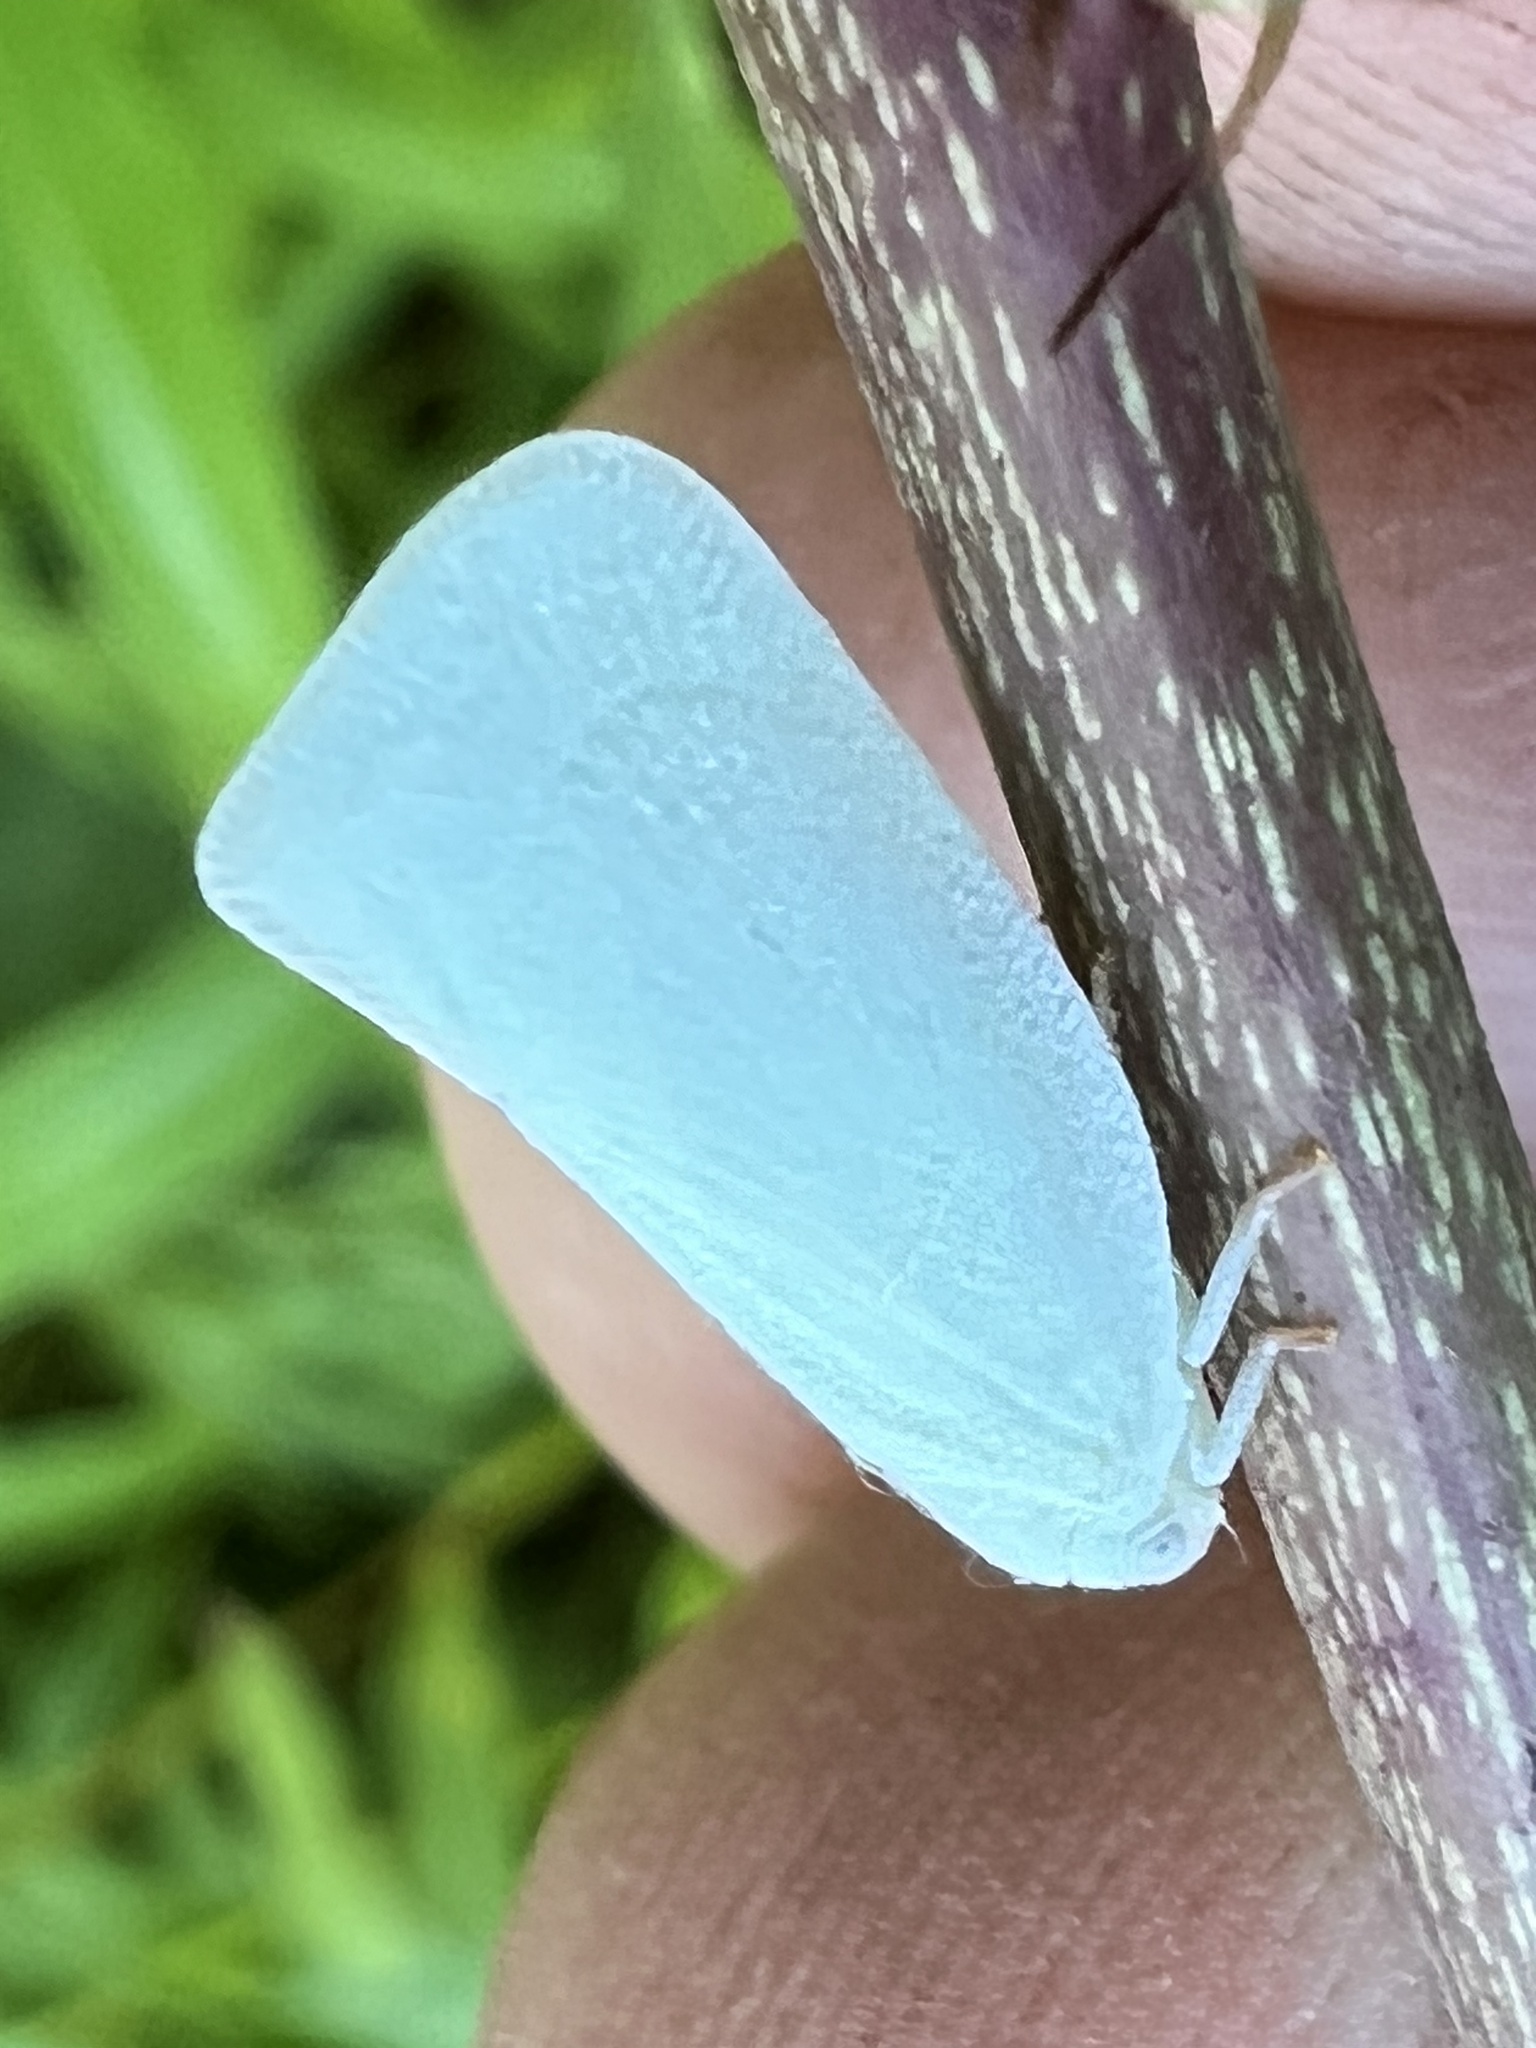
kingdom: Animalia
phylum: Arthropoda
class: Insecta
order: Hemiptera
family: Flatidae
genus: Flatormenis
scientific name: Flatormenis proxima
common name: Northern flatid planthopper
